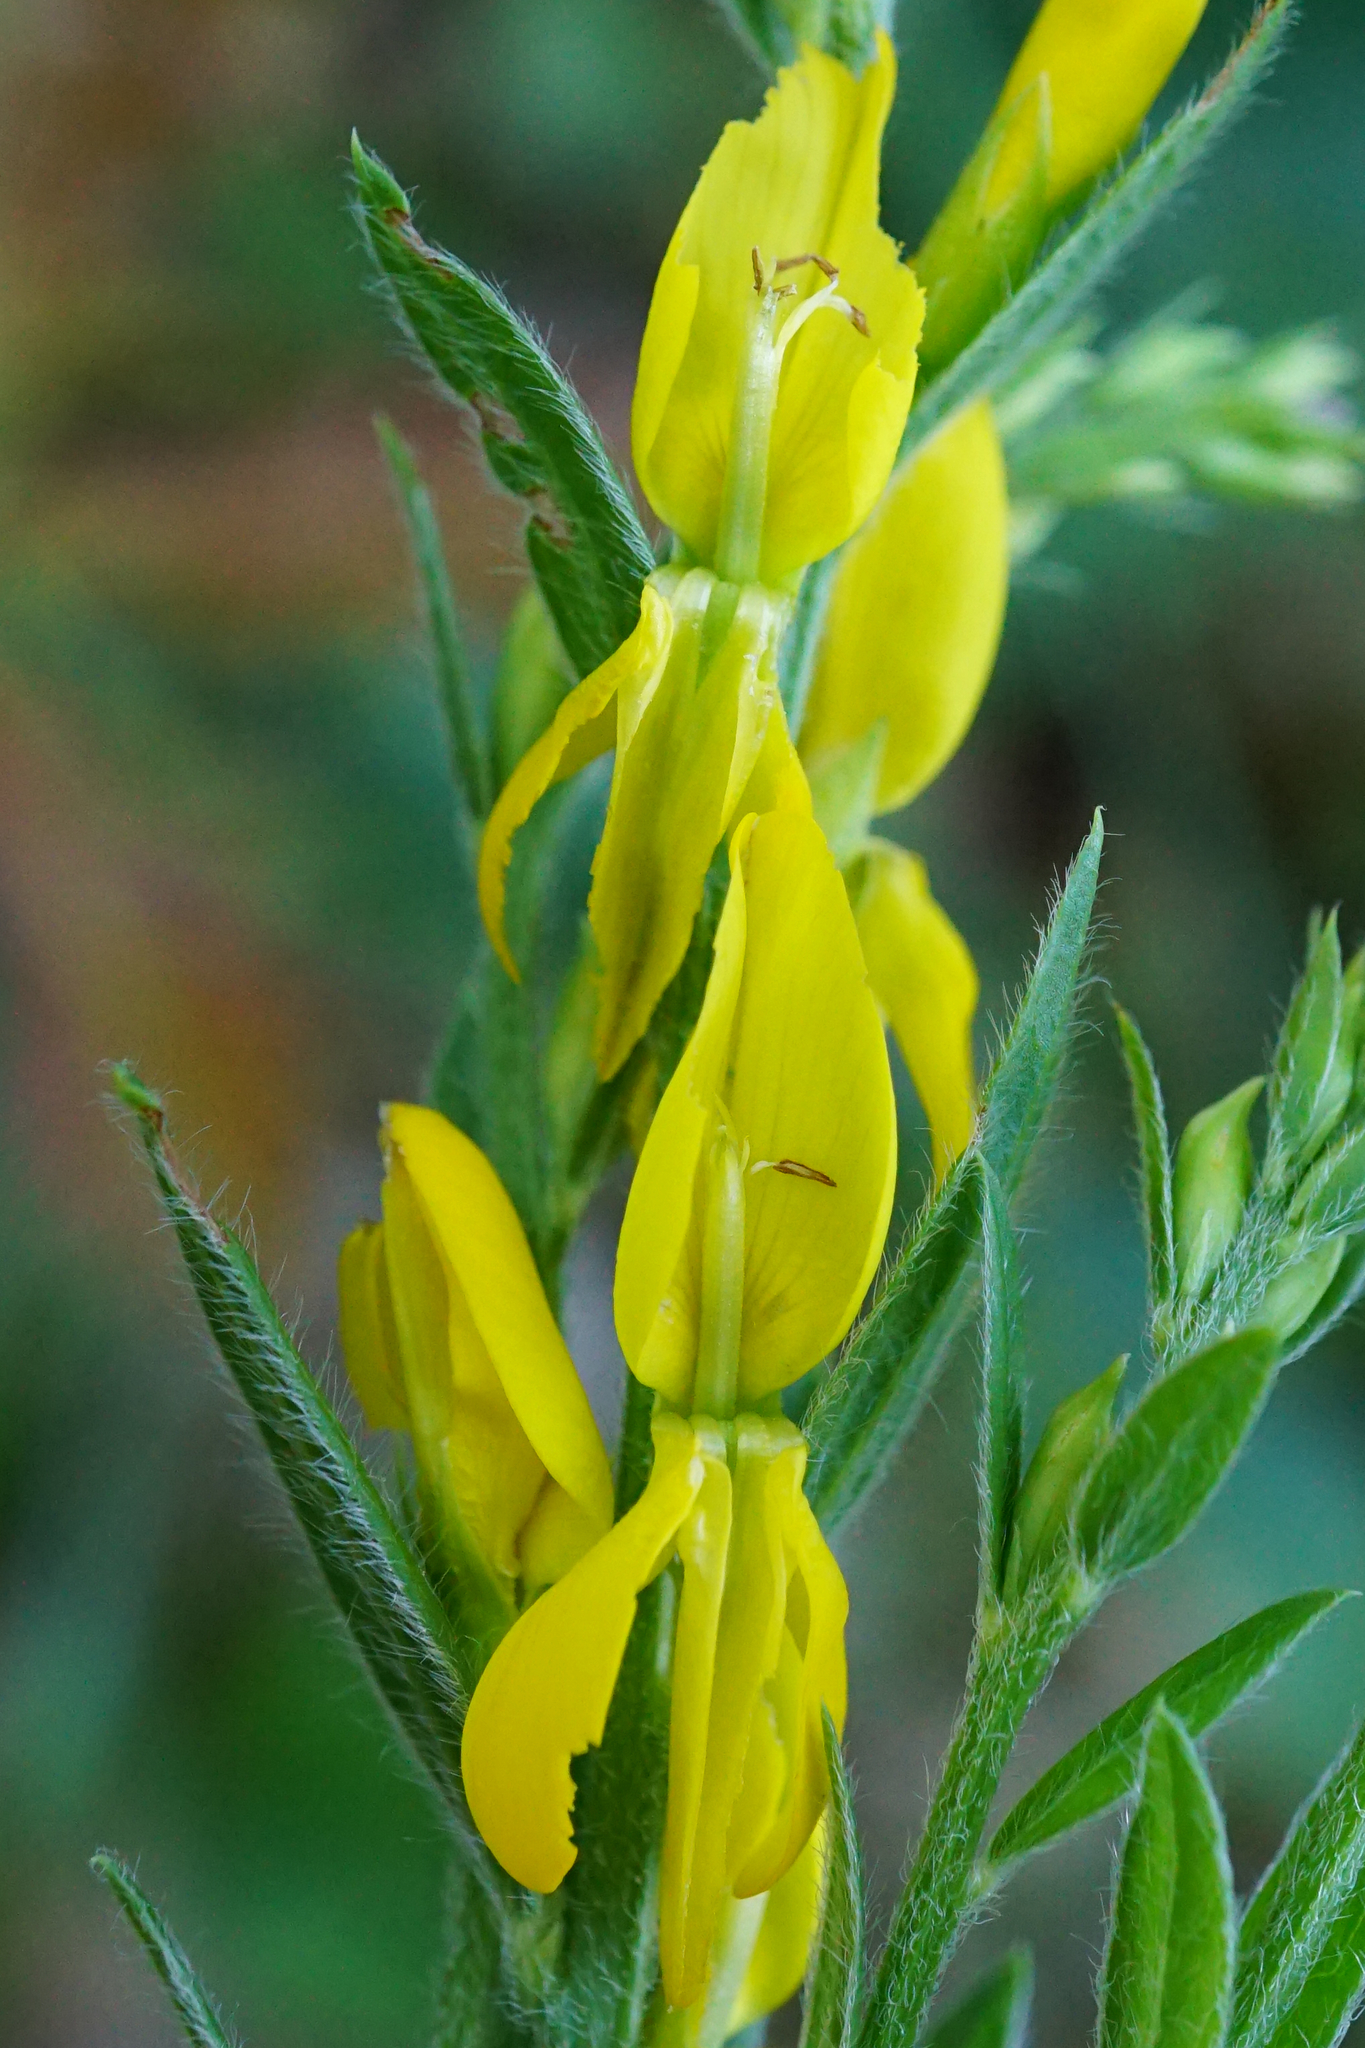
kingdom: Plantae
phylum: Tracheophyta
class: Magnoliopsida
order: Fabales
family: Fabaceae
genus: Genista
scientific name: Genista tinctoria
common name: Dyer's greenweed
